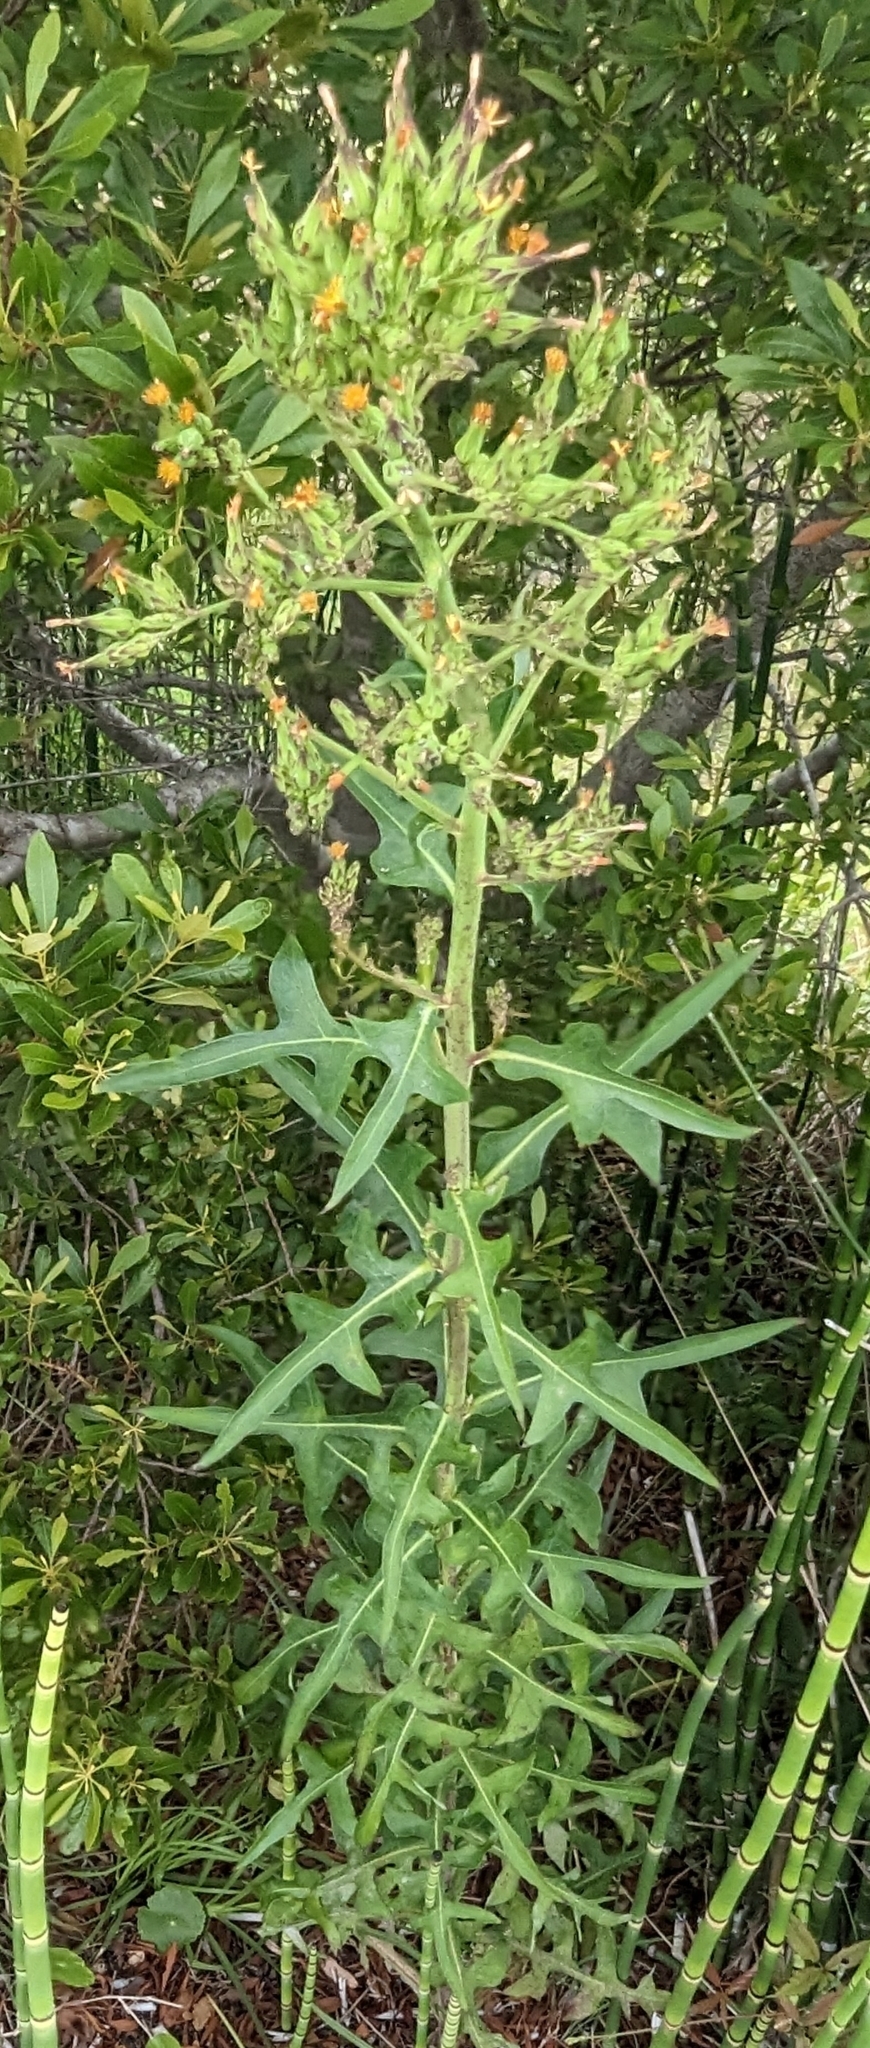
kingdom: Plantae
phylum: Tracheophyta
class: Magnoliopsida
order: Asterales
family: Asteraceae
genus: Lactuca
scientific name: Lactuca canadensis
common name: Canada lettuce
